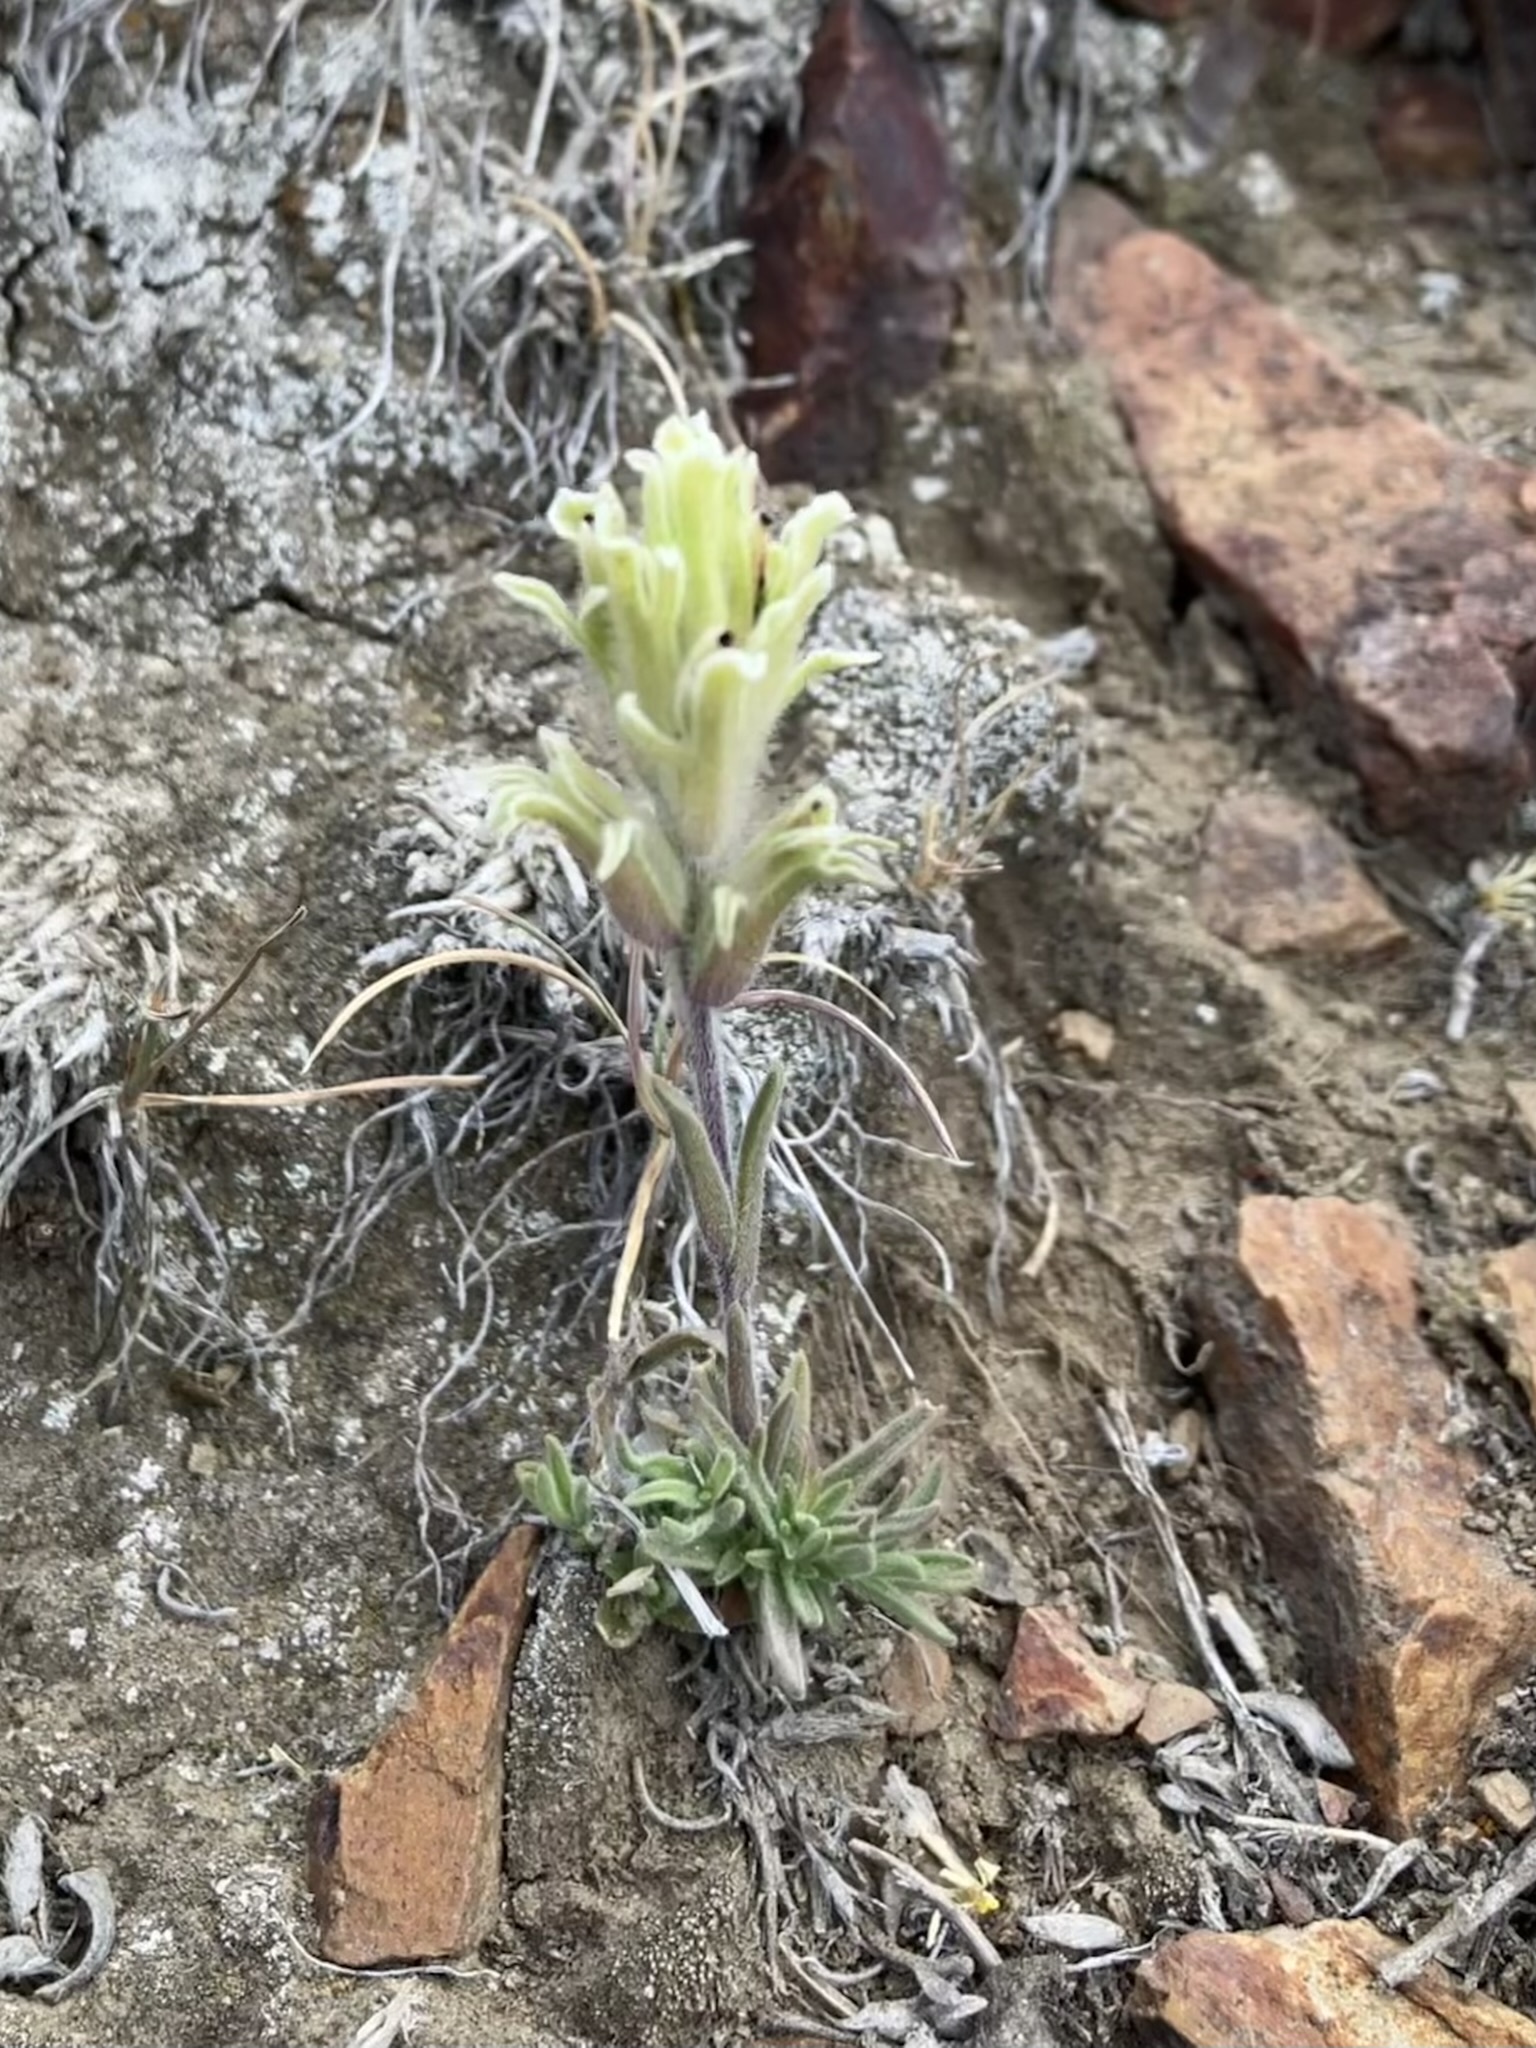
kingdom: Plantae
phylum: Tracheophyta
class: Magnoliopsida
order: Lamiales
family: Orobanchaceae
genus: Castilleja
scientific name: Castilleja nana
